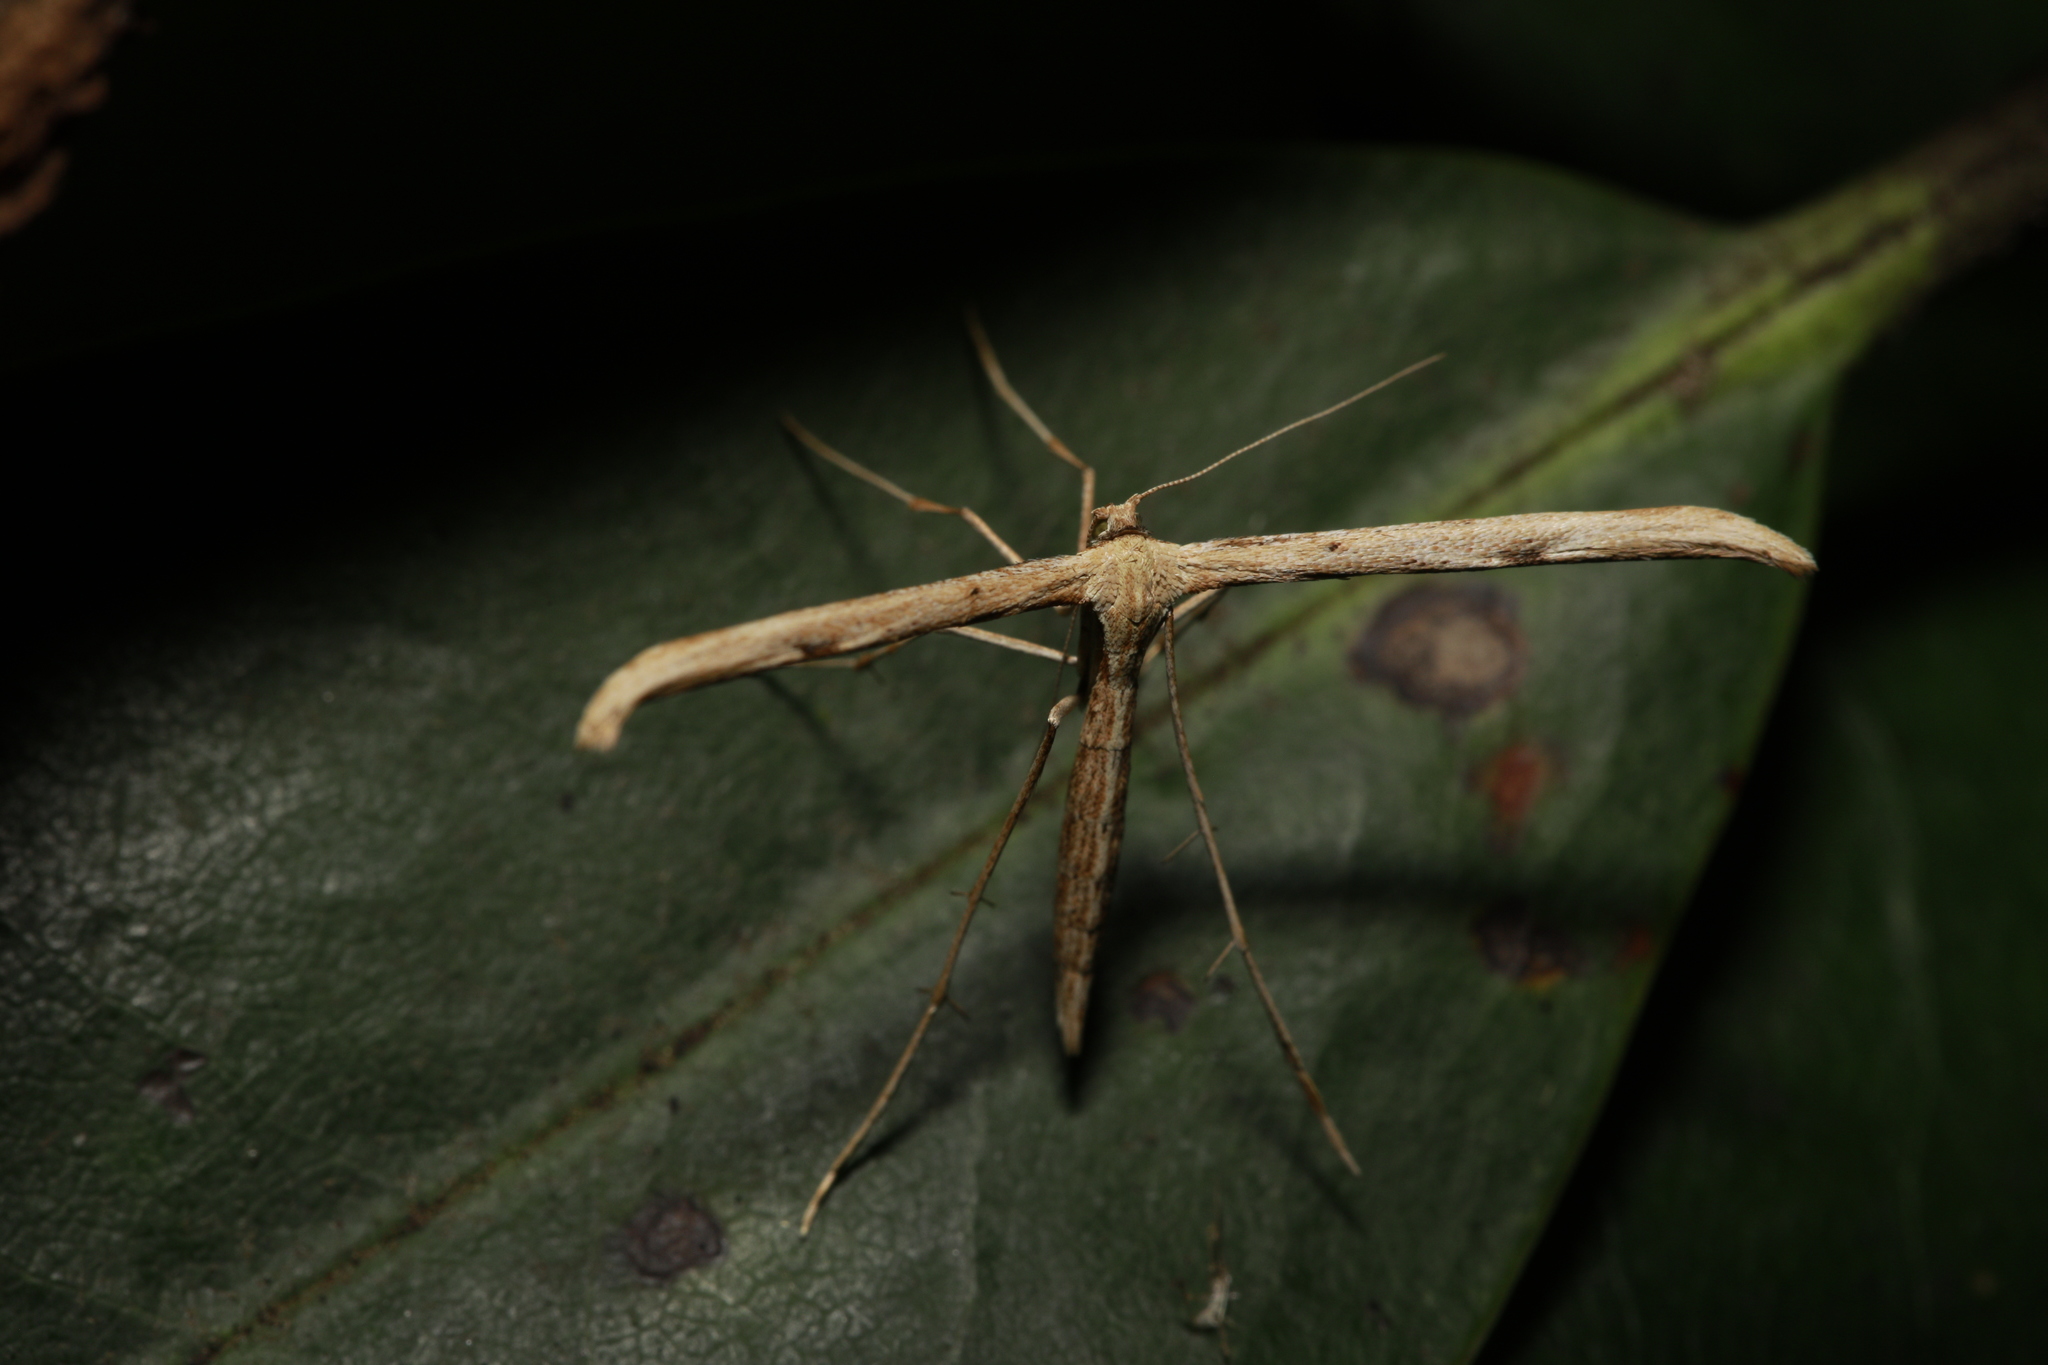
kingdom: Animalia
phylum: Arthropoda
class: Insecta
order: Lepidoptera
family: Pterophoridae
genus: Emmelina
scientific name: Emmelina monodactyla
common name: Common plume
